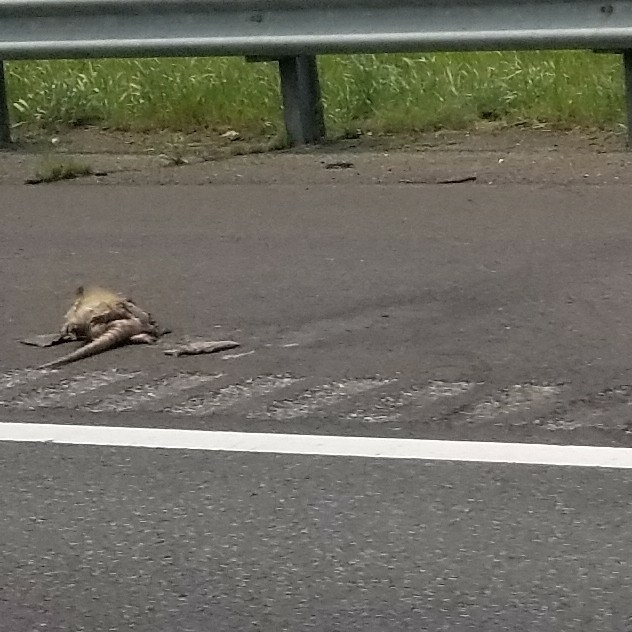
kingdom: Animalia
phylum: Chordata
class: Mammalia
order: Cingulata
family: Dasypodidae
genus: Dasypus
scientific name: Dasypus novemcinctus
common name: Nine-banded armadillo
